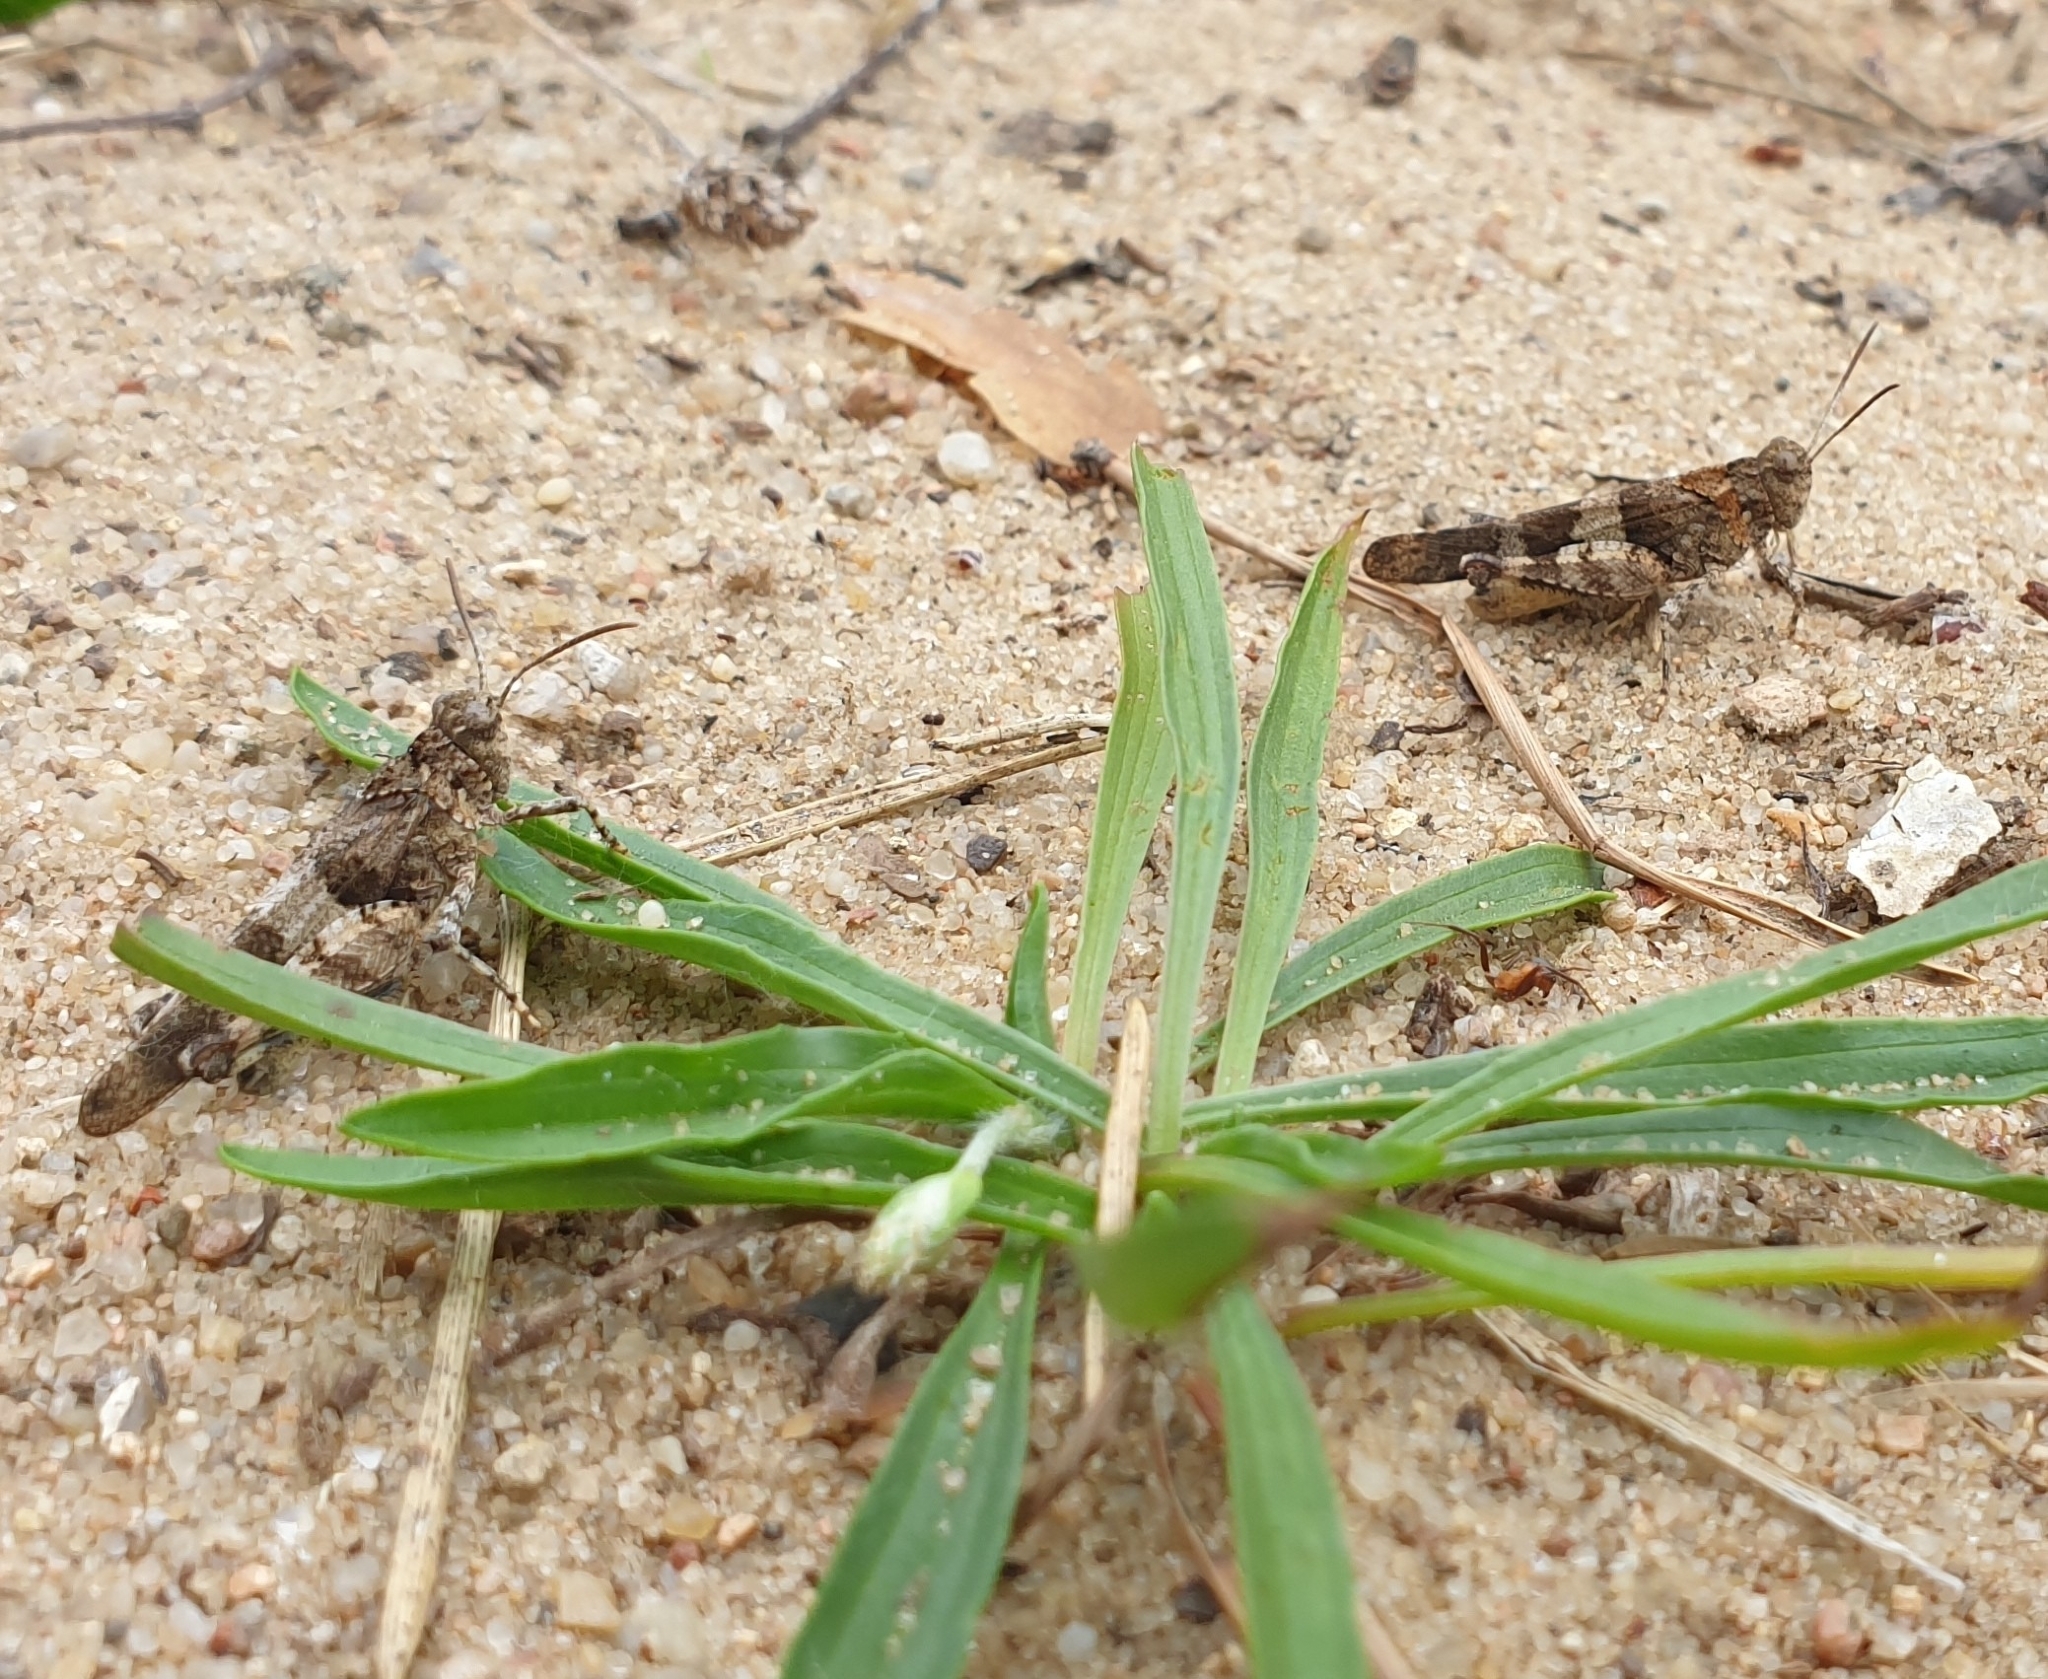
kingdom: Animalia
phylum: Arthropoda
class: Insecta
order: Orthoptera
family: Acrididae
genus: Oedipoda
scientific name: Oedipoda caerulescens
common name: Blue-winged grasshopper
